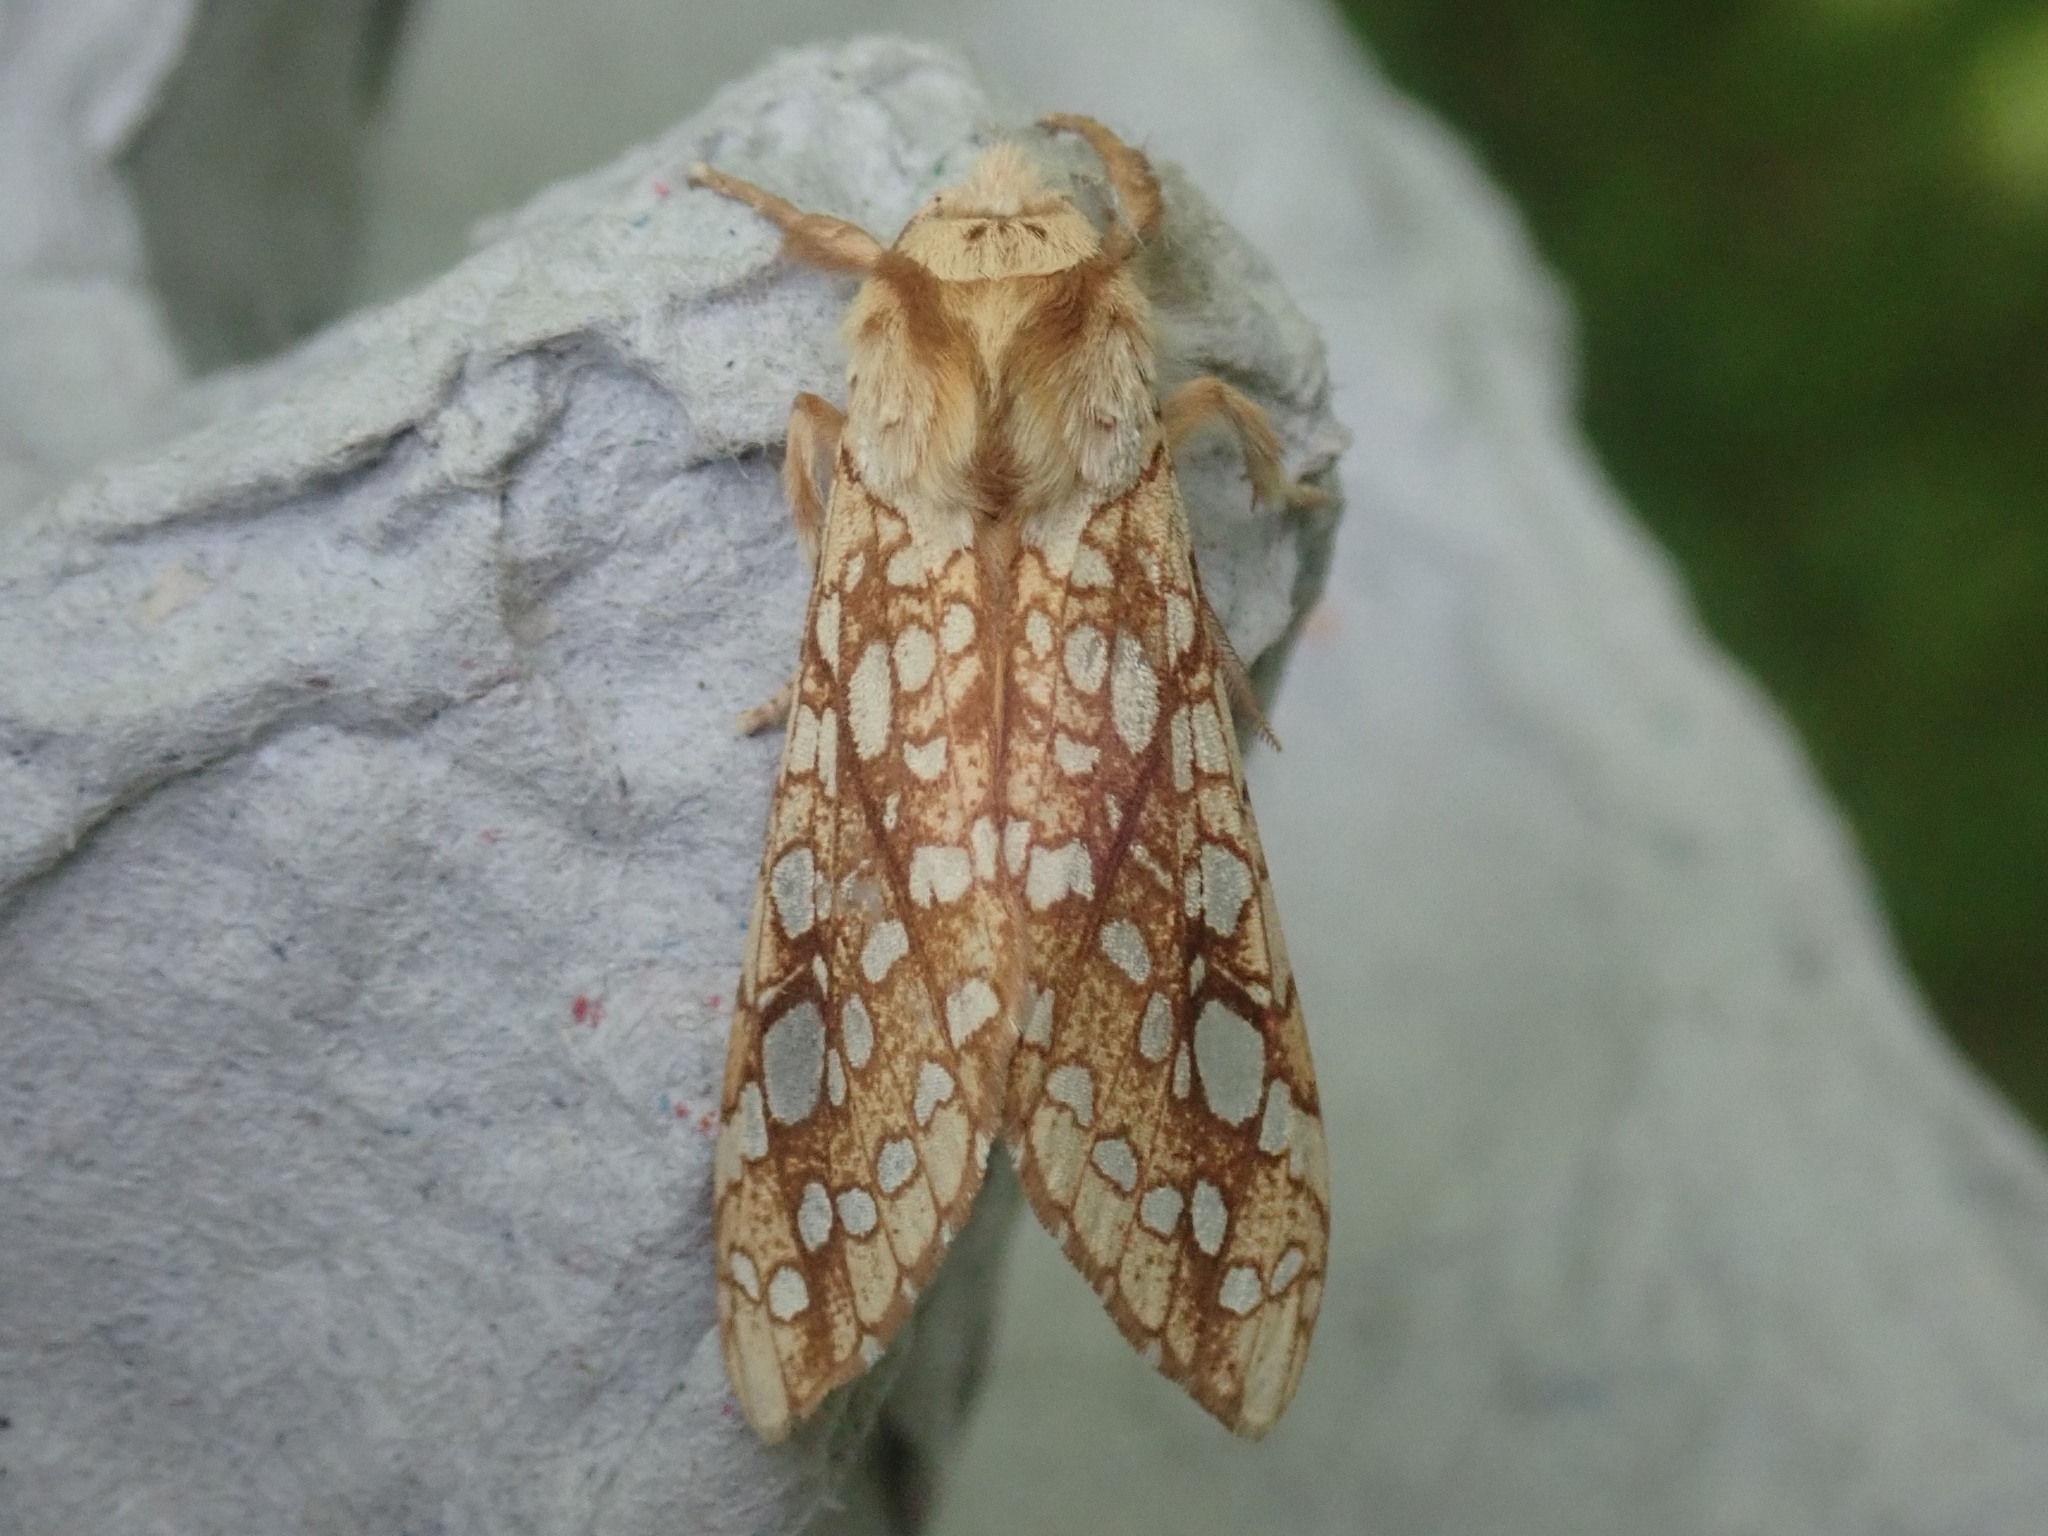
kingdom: Animalia
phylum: Arthropoda
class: Insecta
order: Lepidoptera
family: Erebidae
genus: Lophocampa
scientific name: Lophocampa caryae
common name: Hickory tussock moth
